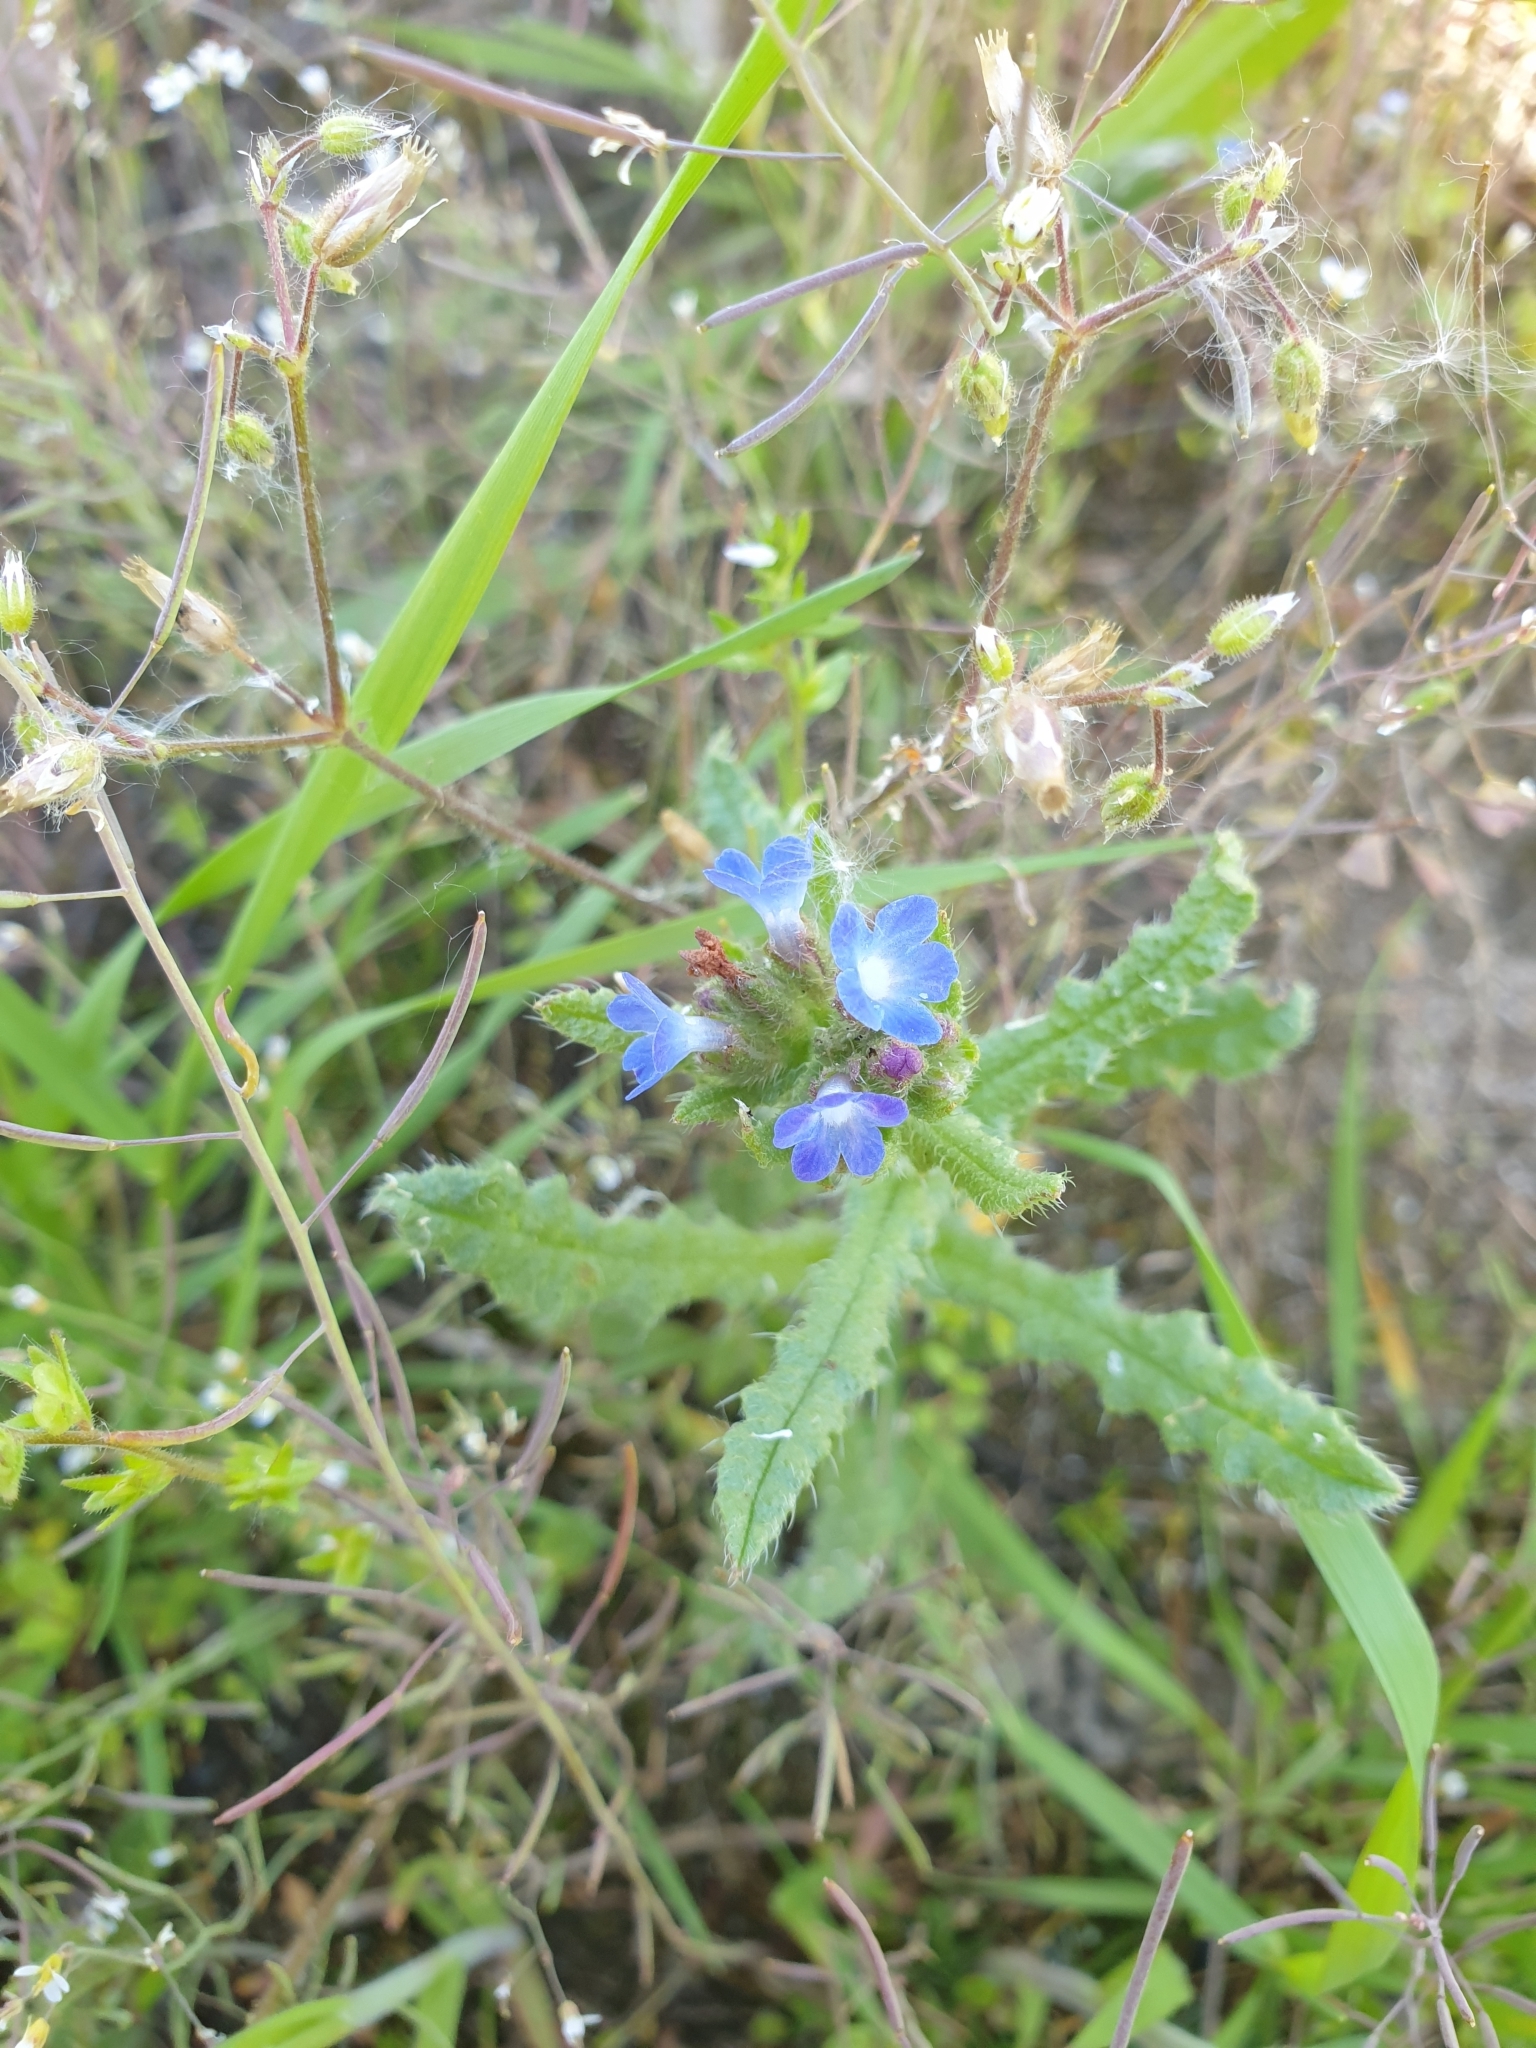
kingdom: Plantae
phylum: Tracheophyta
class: Magnoliopsida
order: Boraginales
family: Boraginaceae
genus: Lycopsis
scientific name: Lycopsis arvensis
